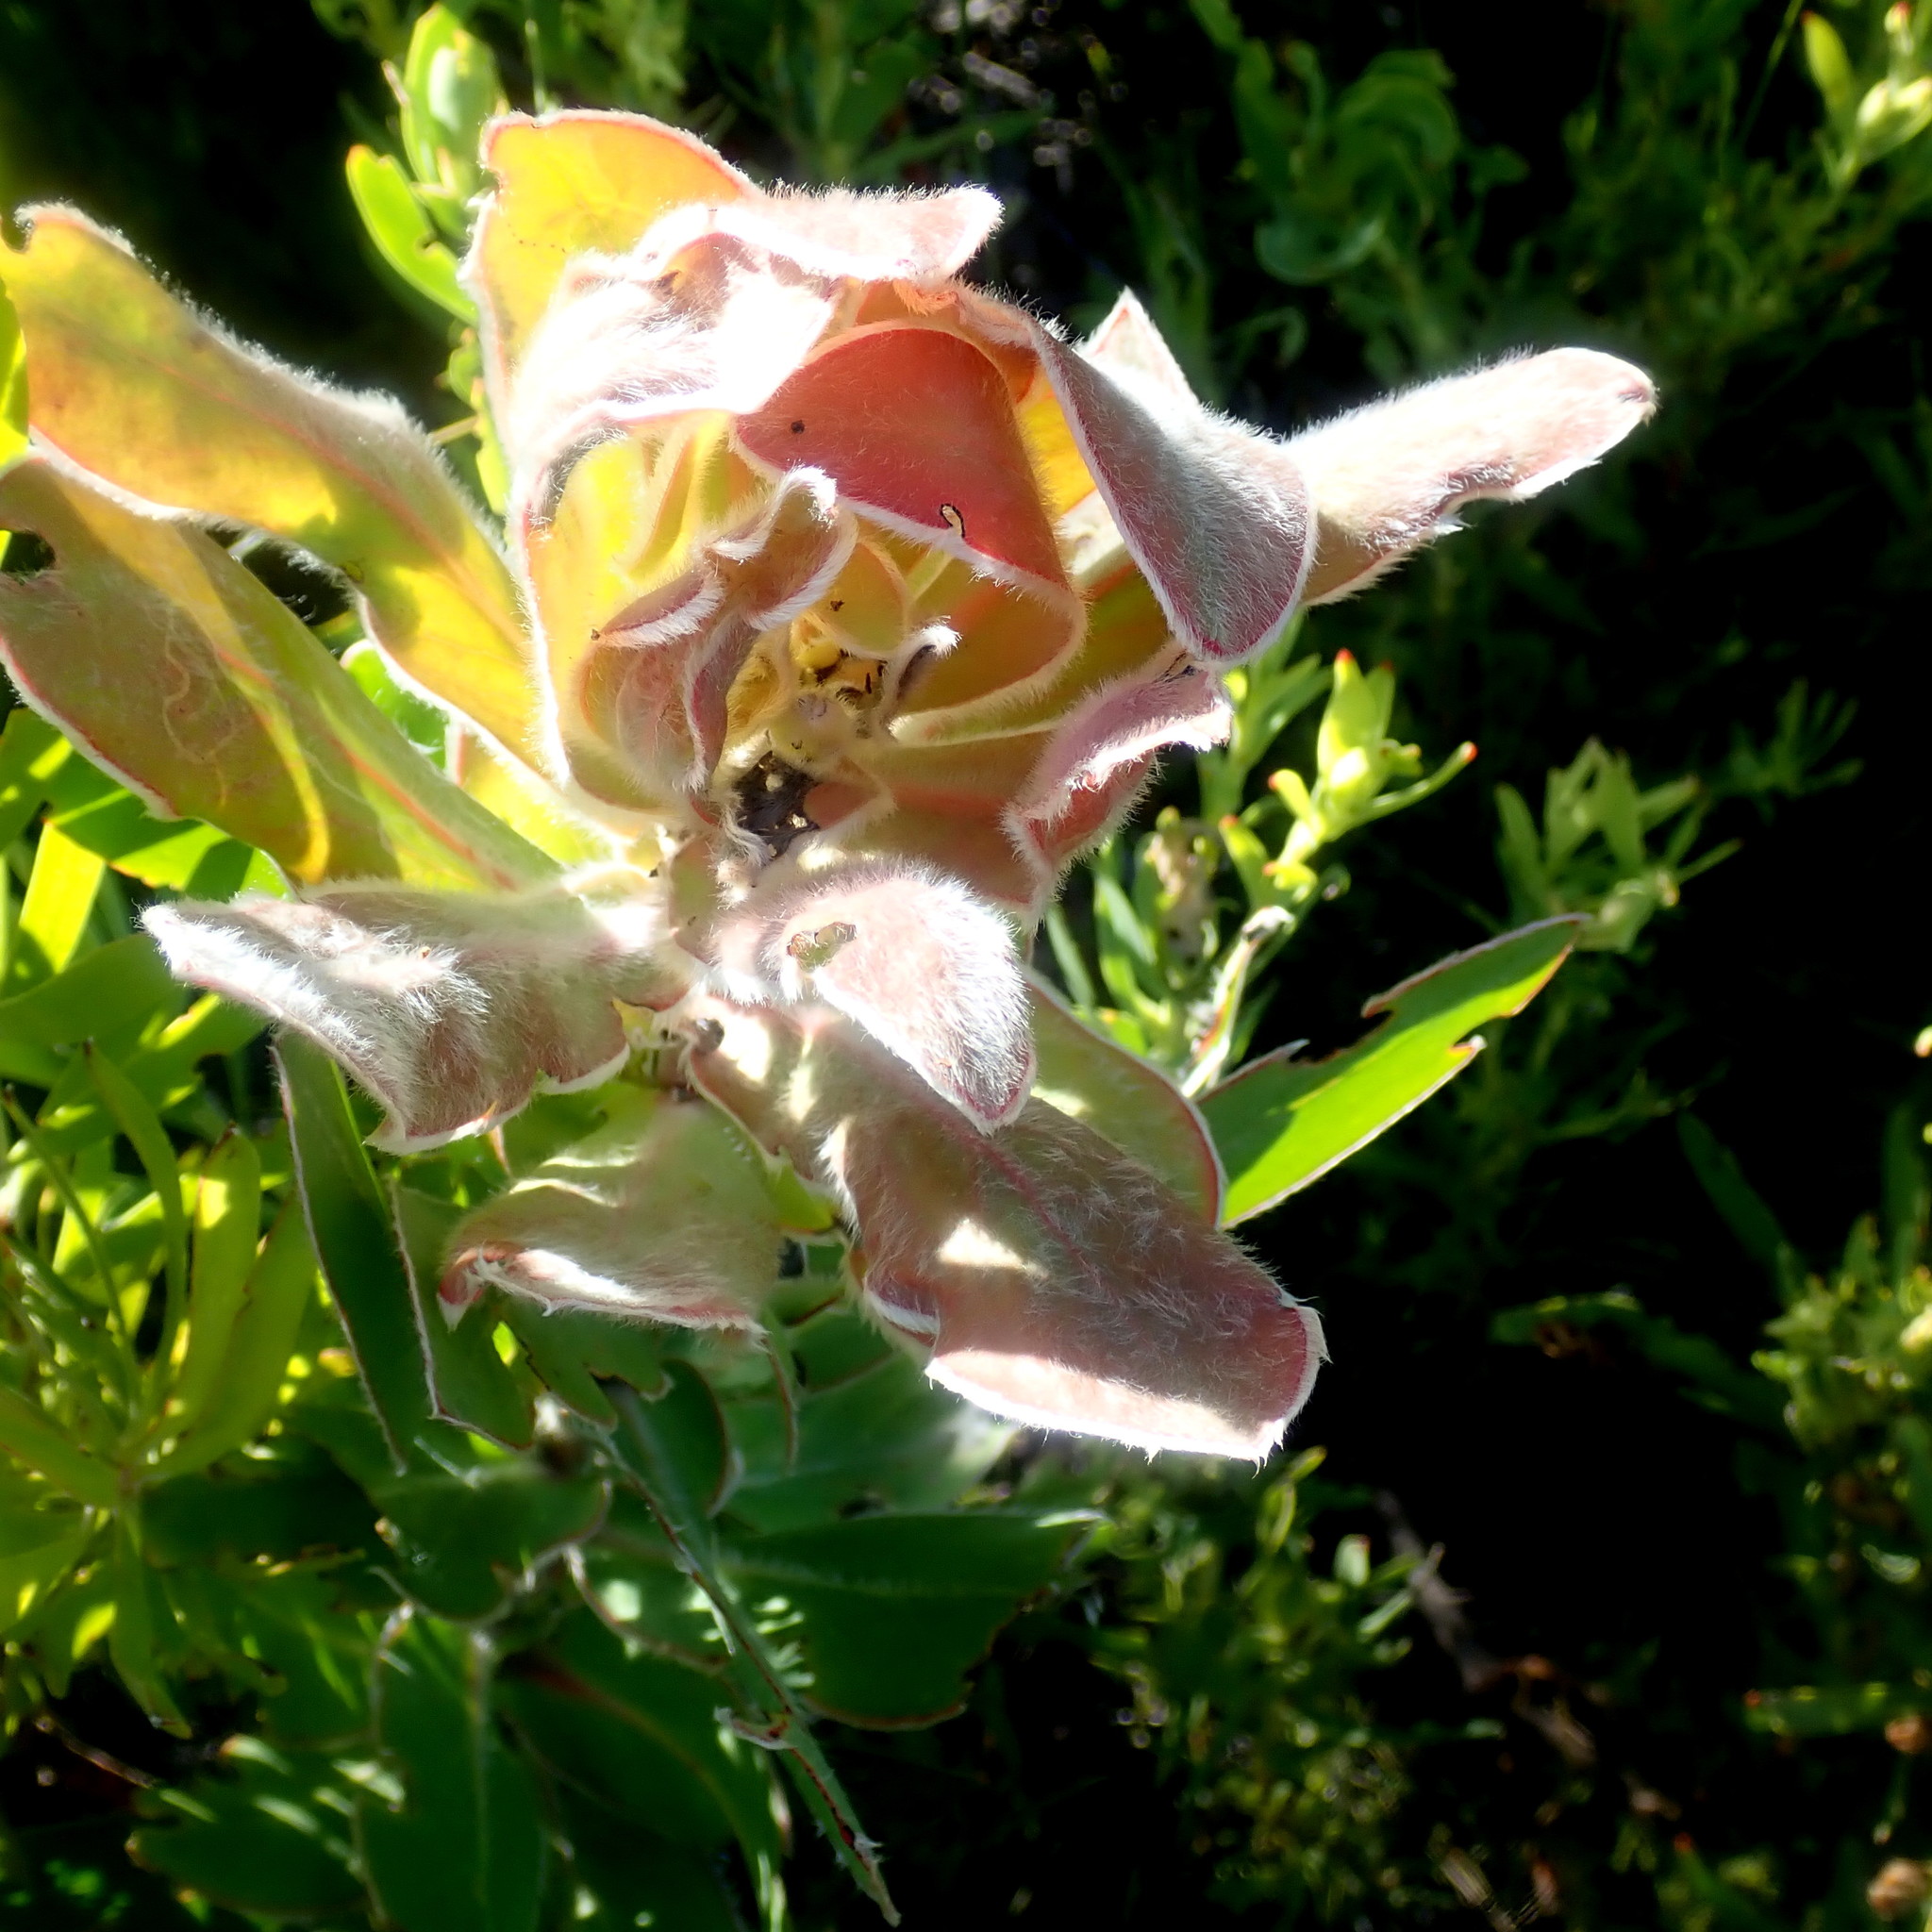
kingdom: Plantae
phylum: Tracheophyta
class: Magnoliopsida
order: Proteales
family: Proteaceae
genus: Protea
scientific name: Protea eximia
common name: Broad-leaved sugarbush
